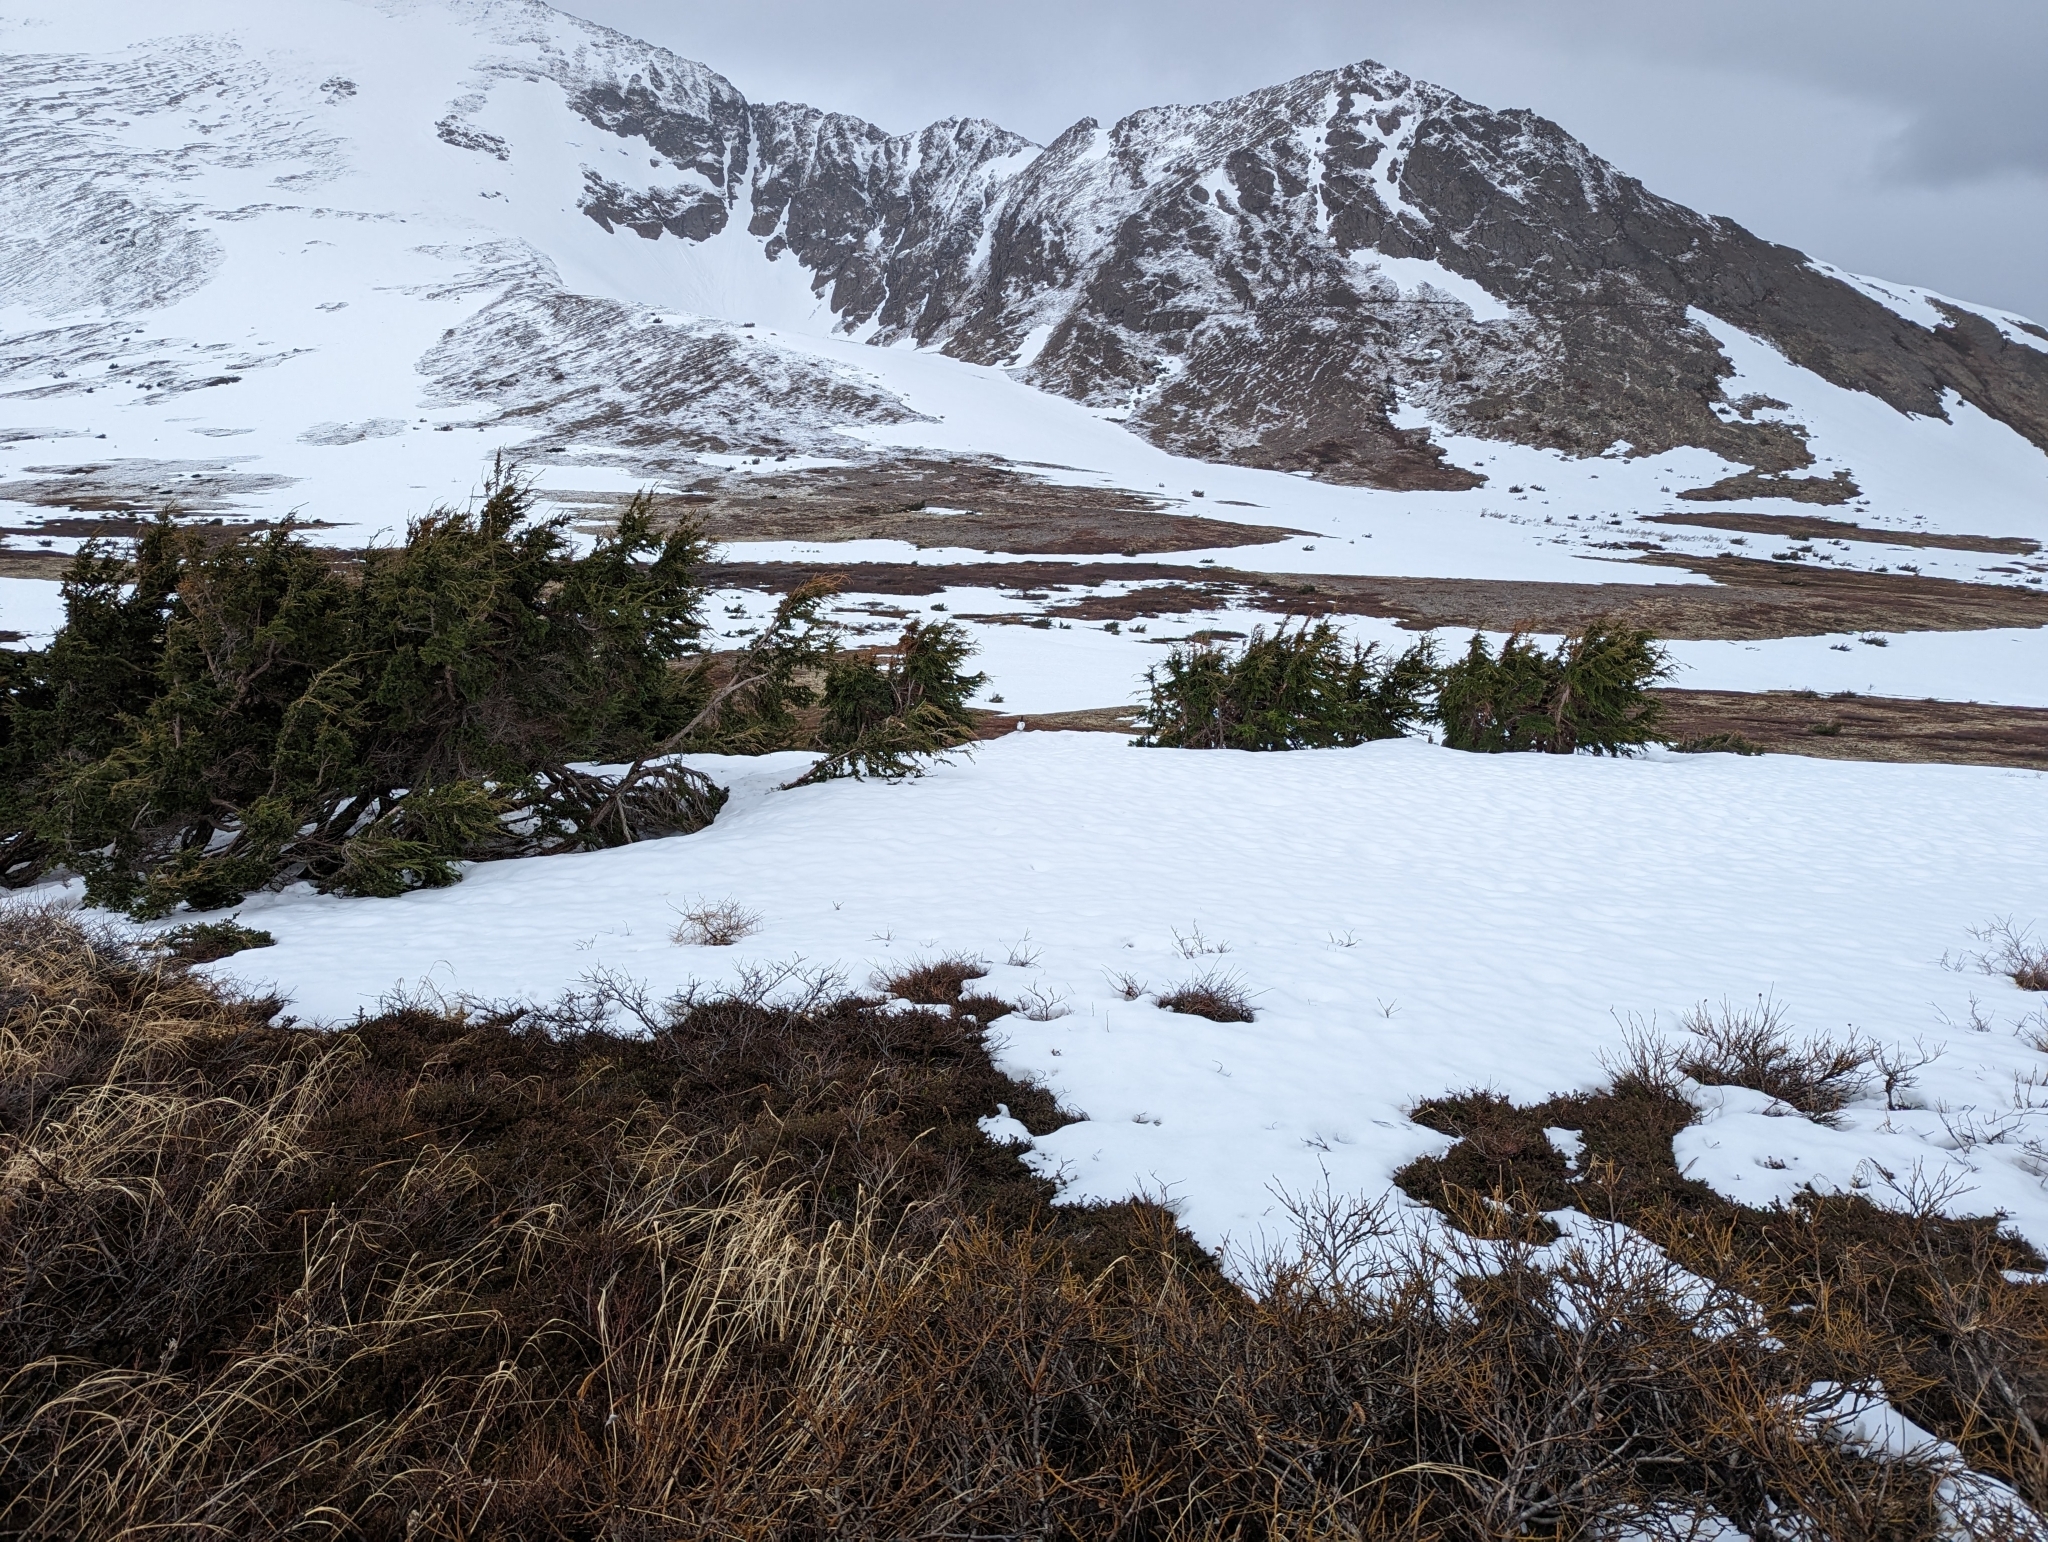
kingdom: Animalia
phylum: Chordata
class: Aves
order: Galliformes
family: Phasianidae
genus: Lagopus
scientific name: Lagopus lagopus
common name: Willow ptarmigan
